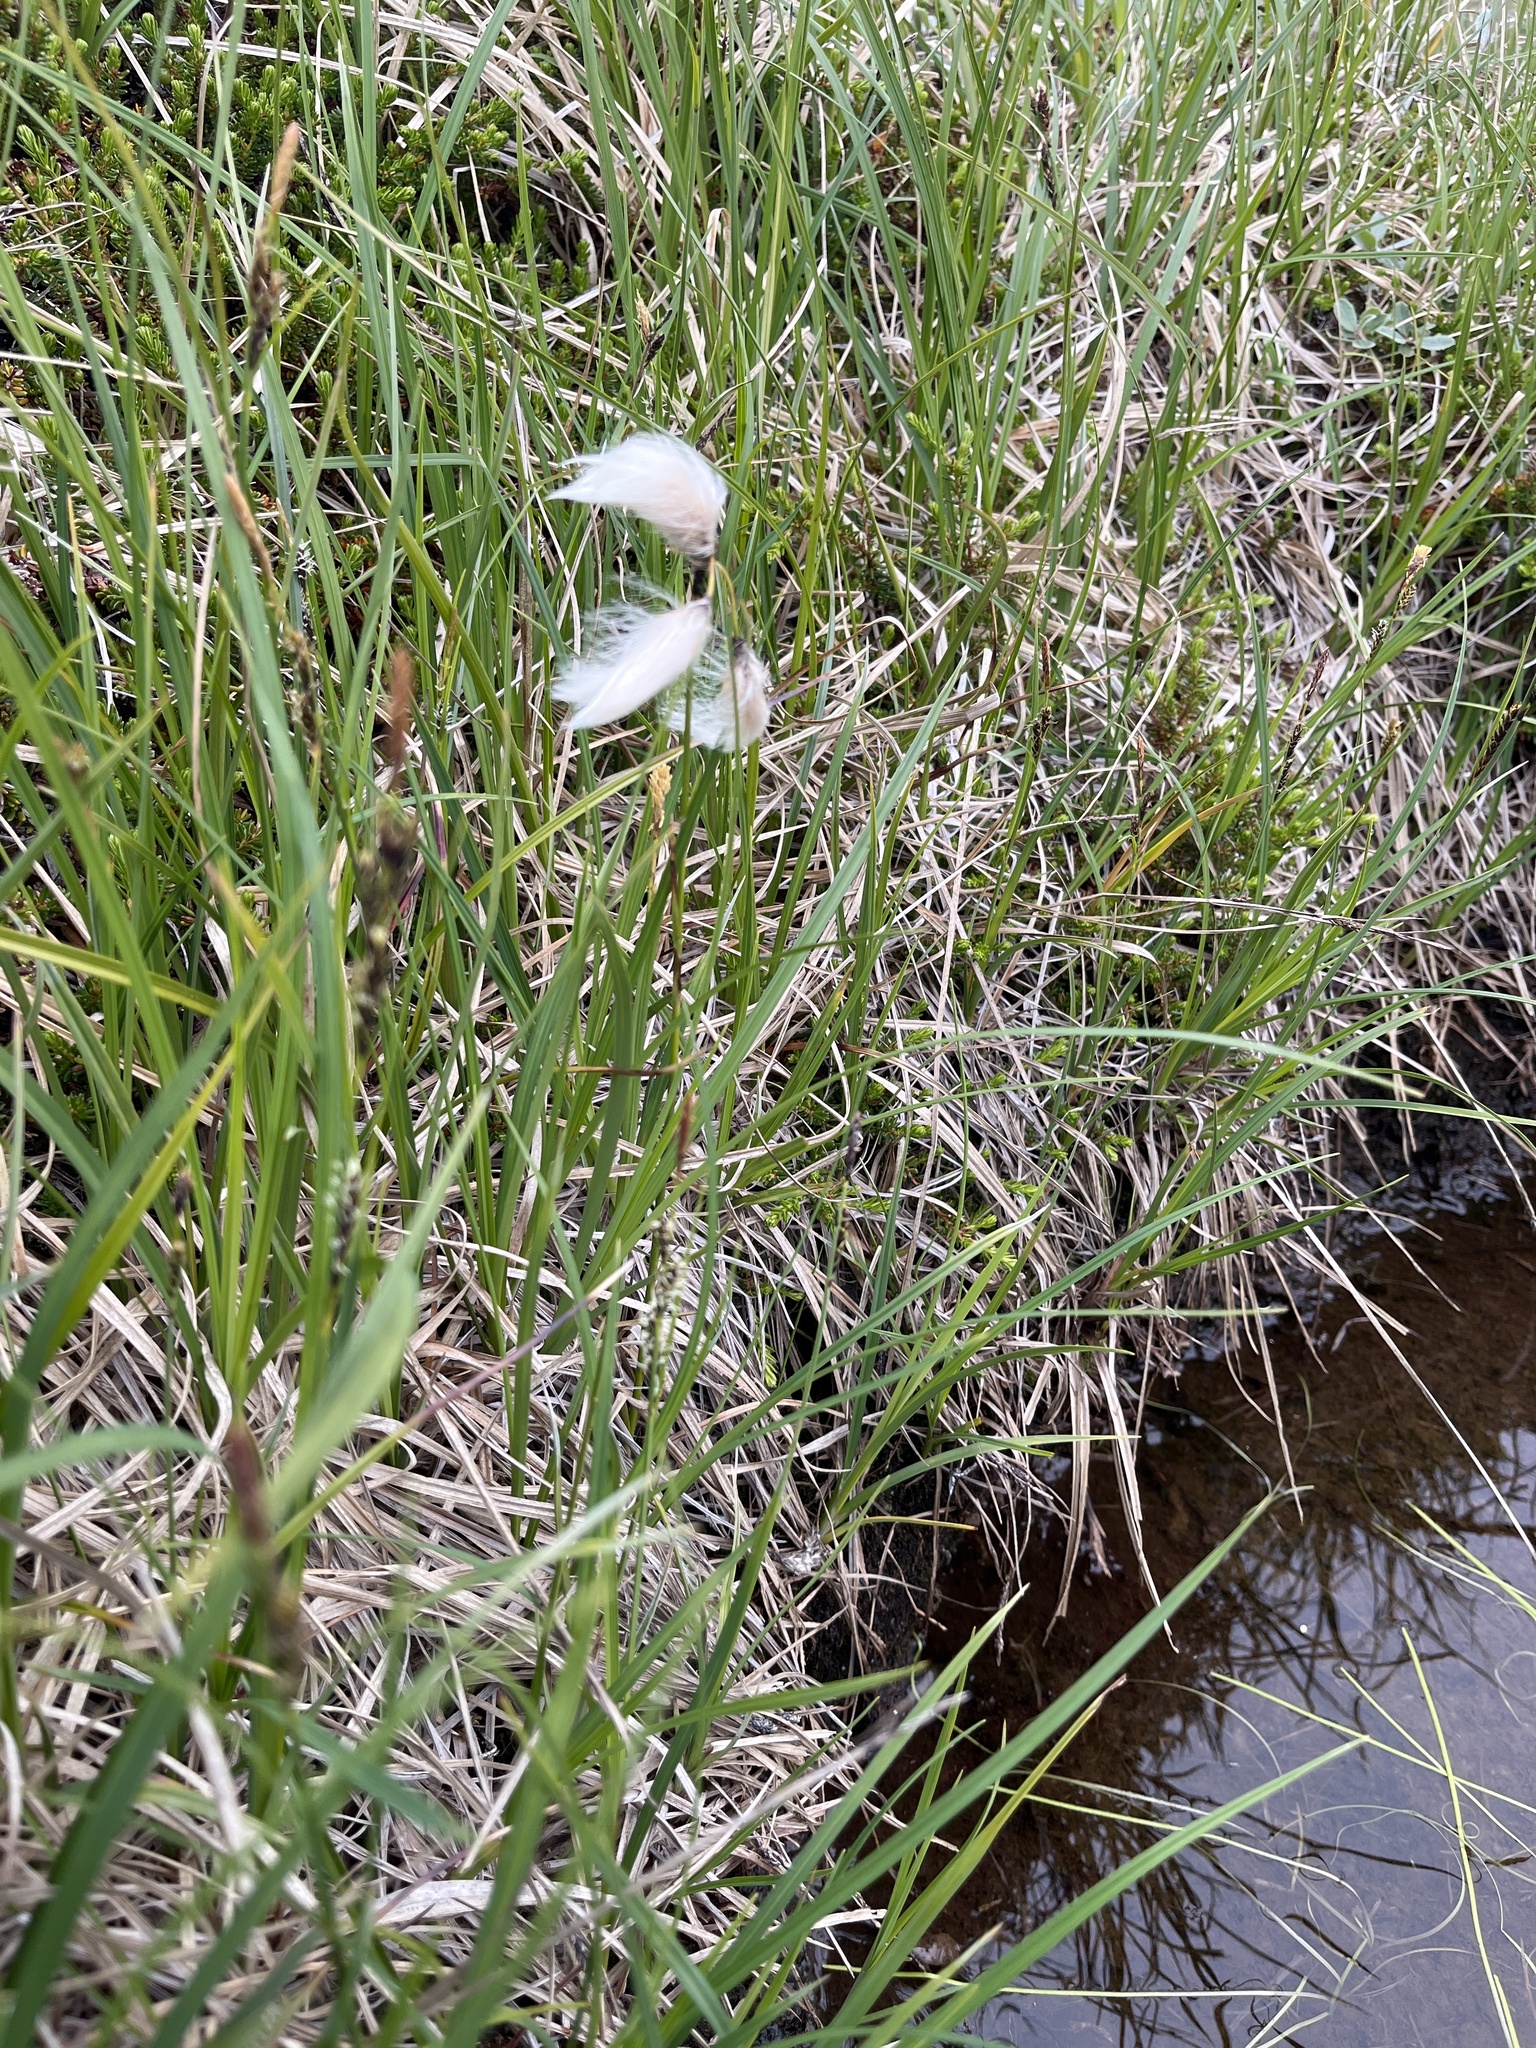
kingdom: Plantae
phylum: Tracheophyta
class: Liliopsida
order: Poales
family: Cyperaceae
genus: Eriophorum
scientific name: Eriophorum angustifolium
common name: Common cottongrass
